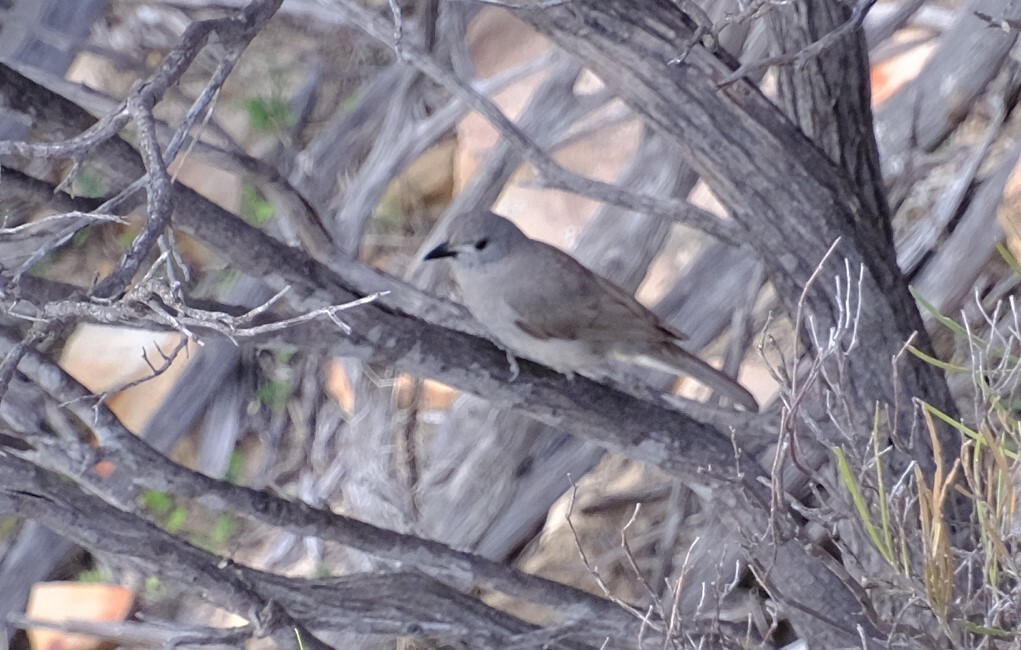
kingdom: Animalia
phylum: Chordata
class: Aves
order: Passeriformes
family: Pachycephalidae
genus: Colluricincla
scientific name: Colluricincla harmonica
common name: Grey shrikethrush
